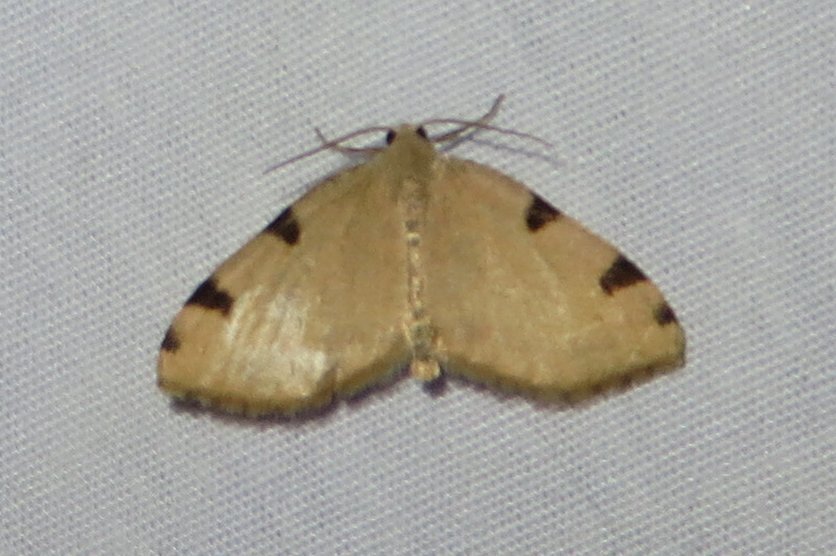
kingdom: Animalia
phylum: Arthropoda
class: Insecta
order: Lepidoptera
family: Geometridae
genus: Heterophleps
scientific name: Heterophleps triguttaria
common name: Three-spotted fillip
